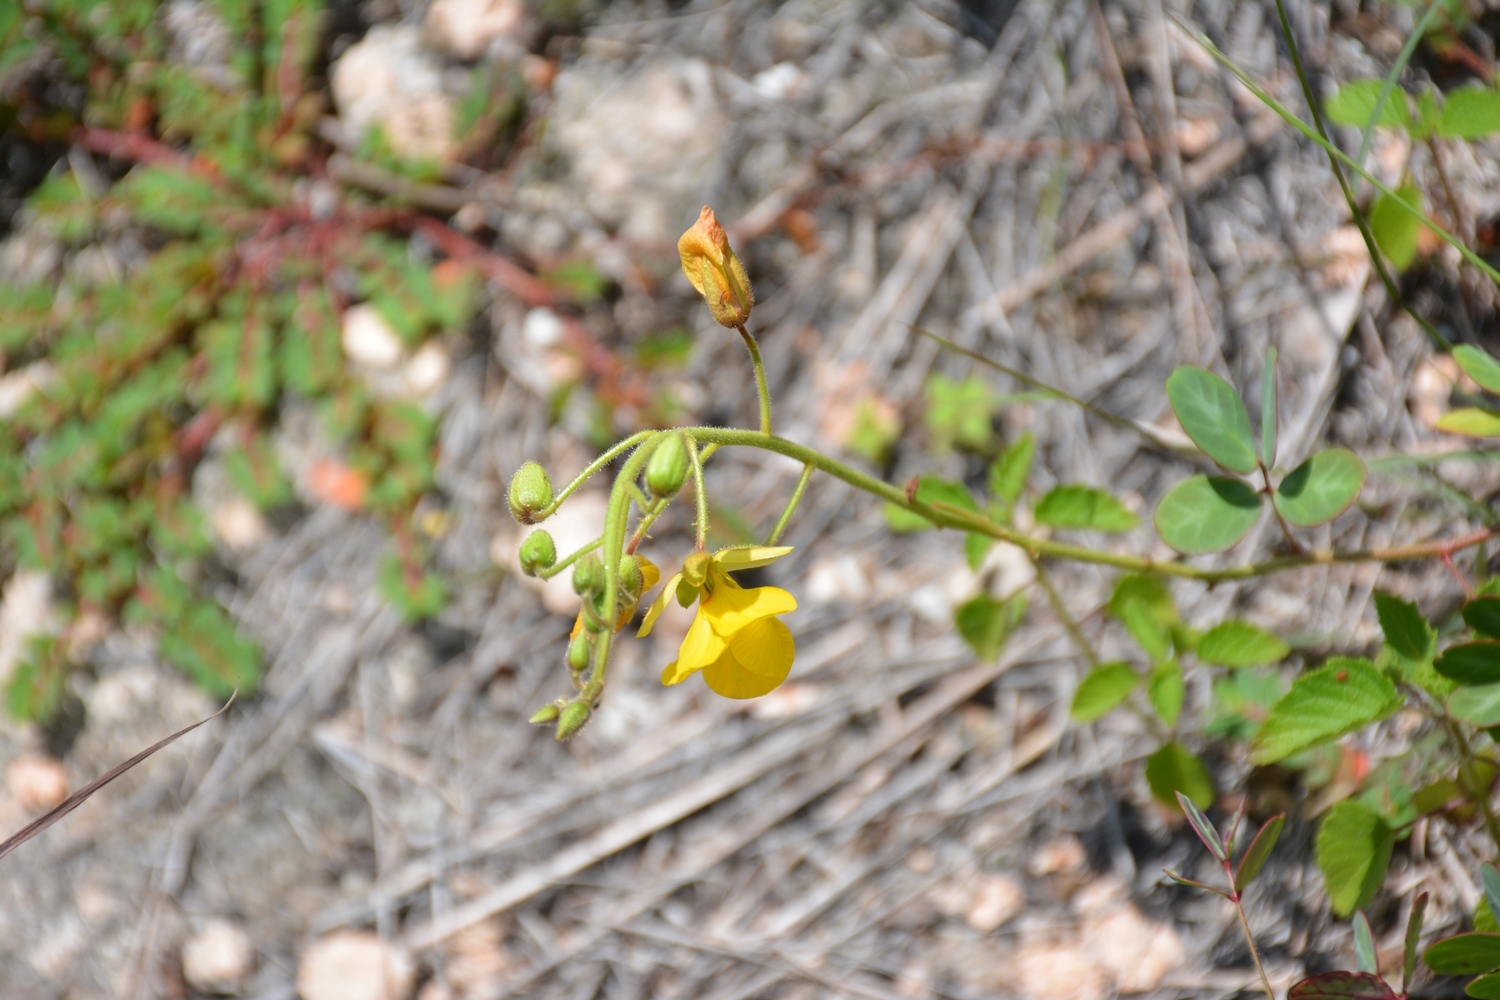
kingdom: Plantae
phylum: Tracheophyta
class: Magnoliopsida
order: Fabales
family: Fabaceae
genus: Chamaecrista
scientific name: Chamaecrista hispidula
